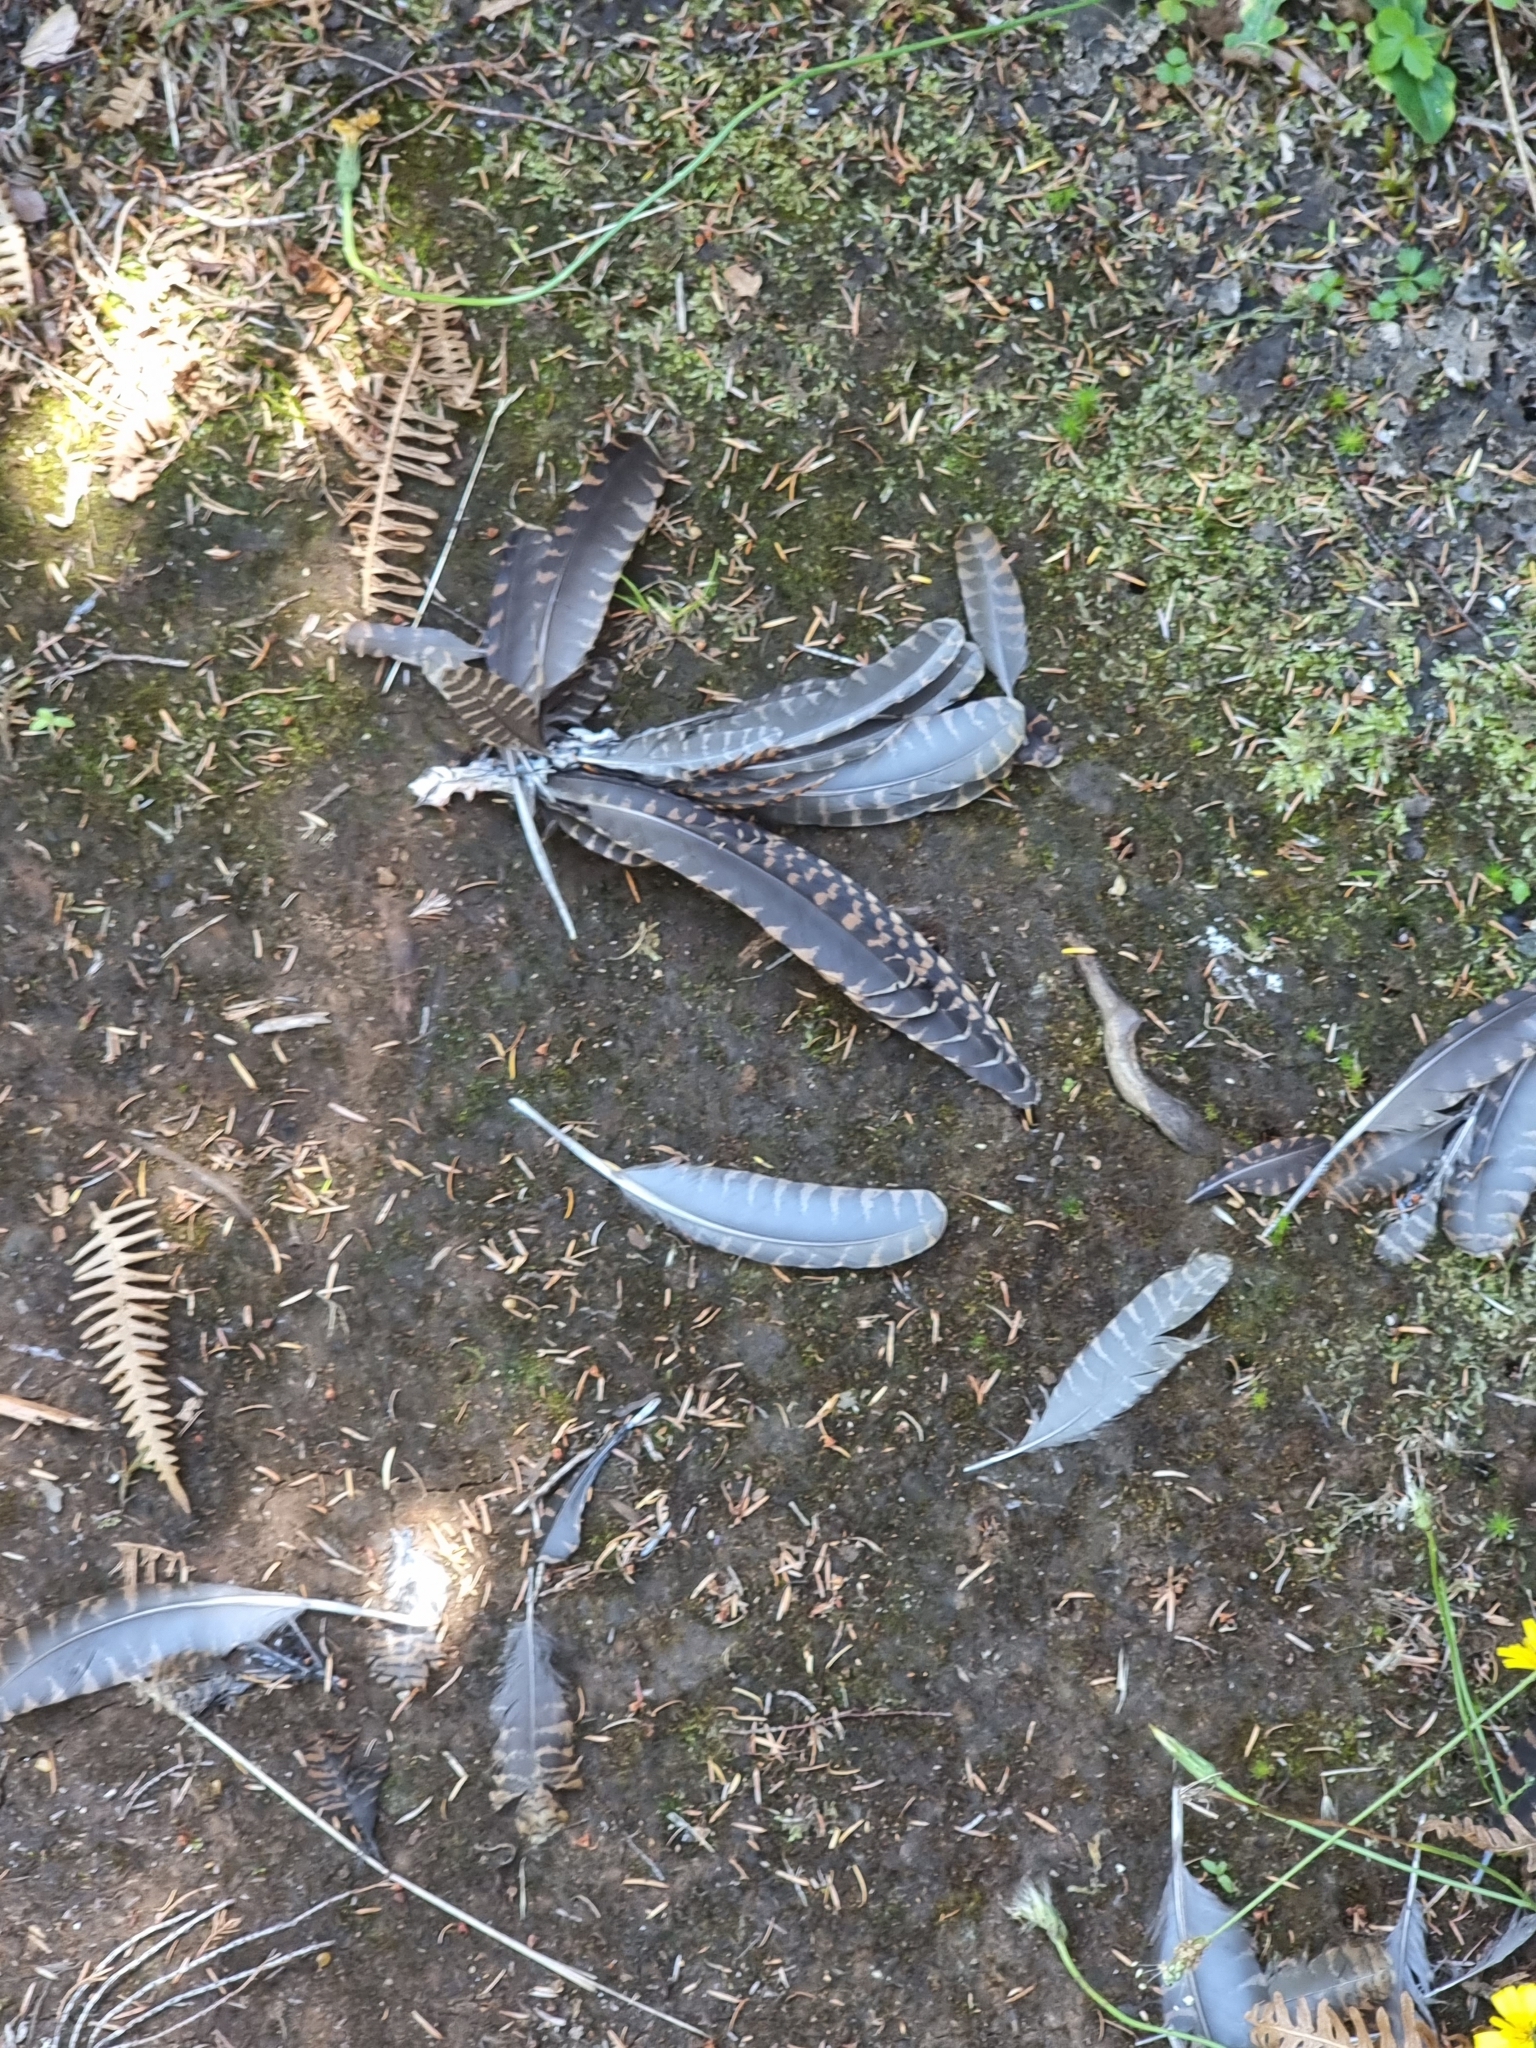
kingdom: Animalia
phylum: Chordata
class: Aves
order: Charadriiformes
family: Scolopacidae
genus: Scolopax
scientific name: Scolopax rusticola
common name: Eurasian woodcock
